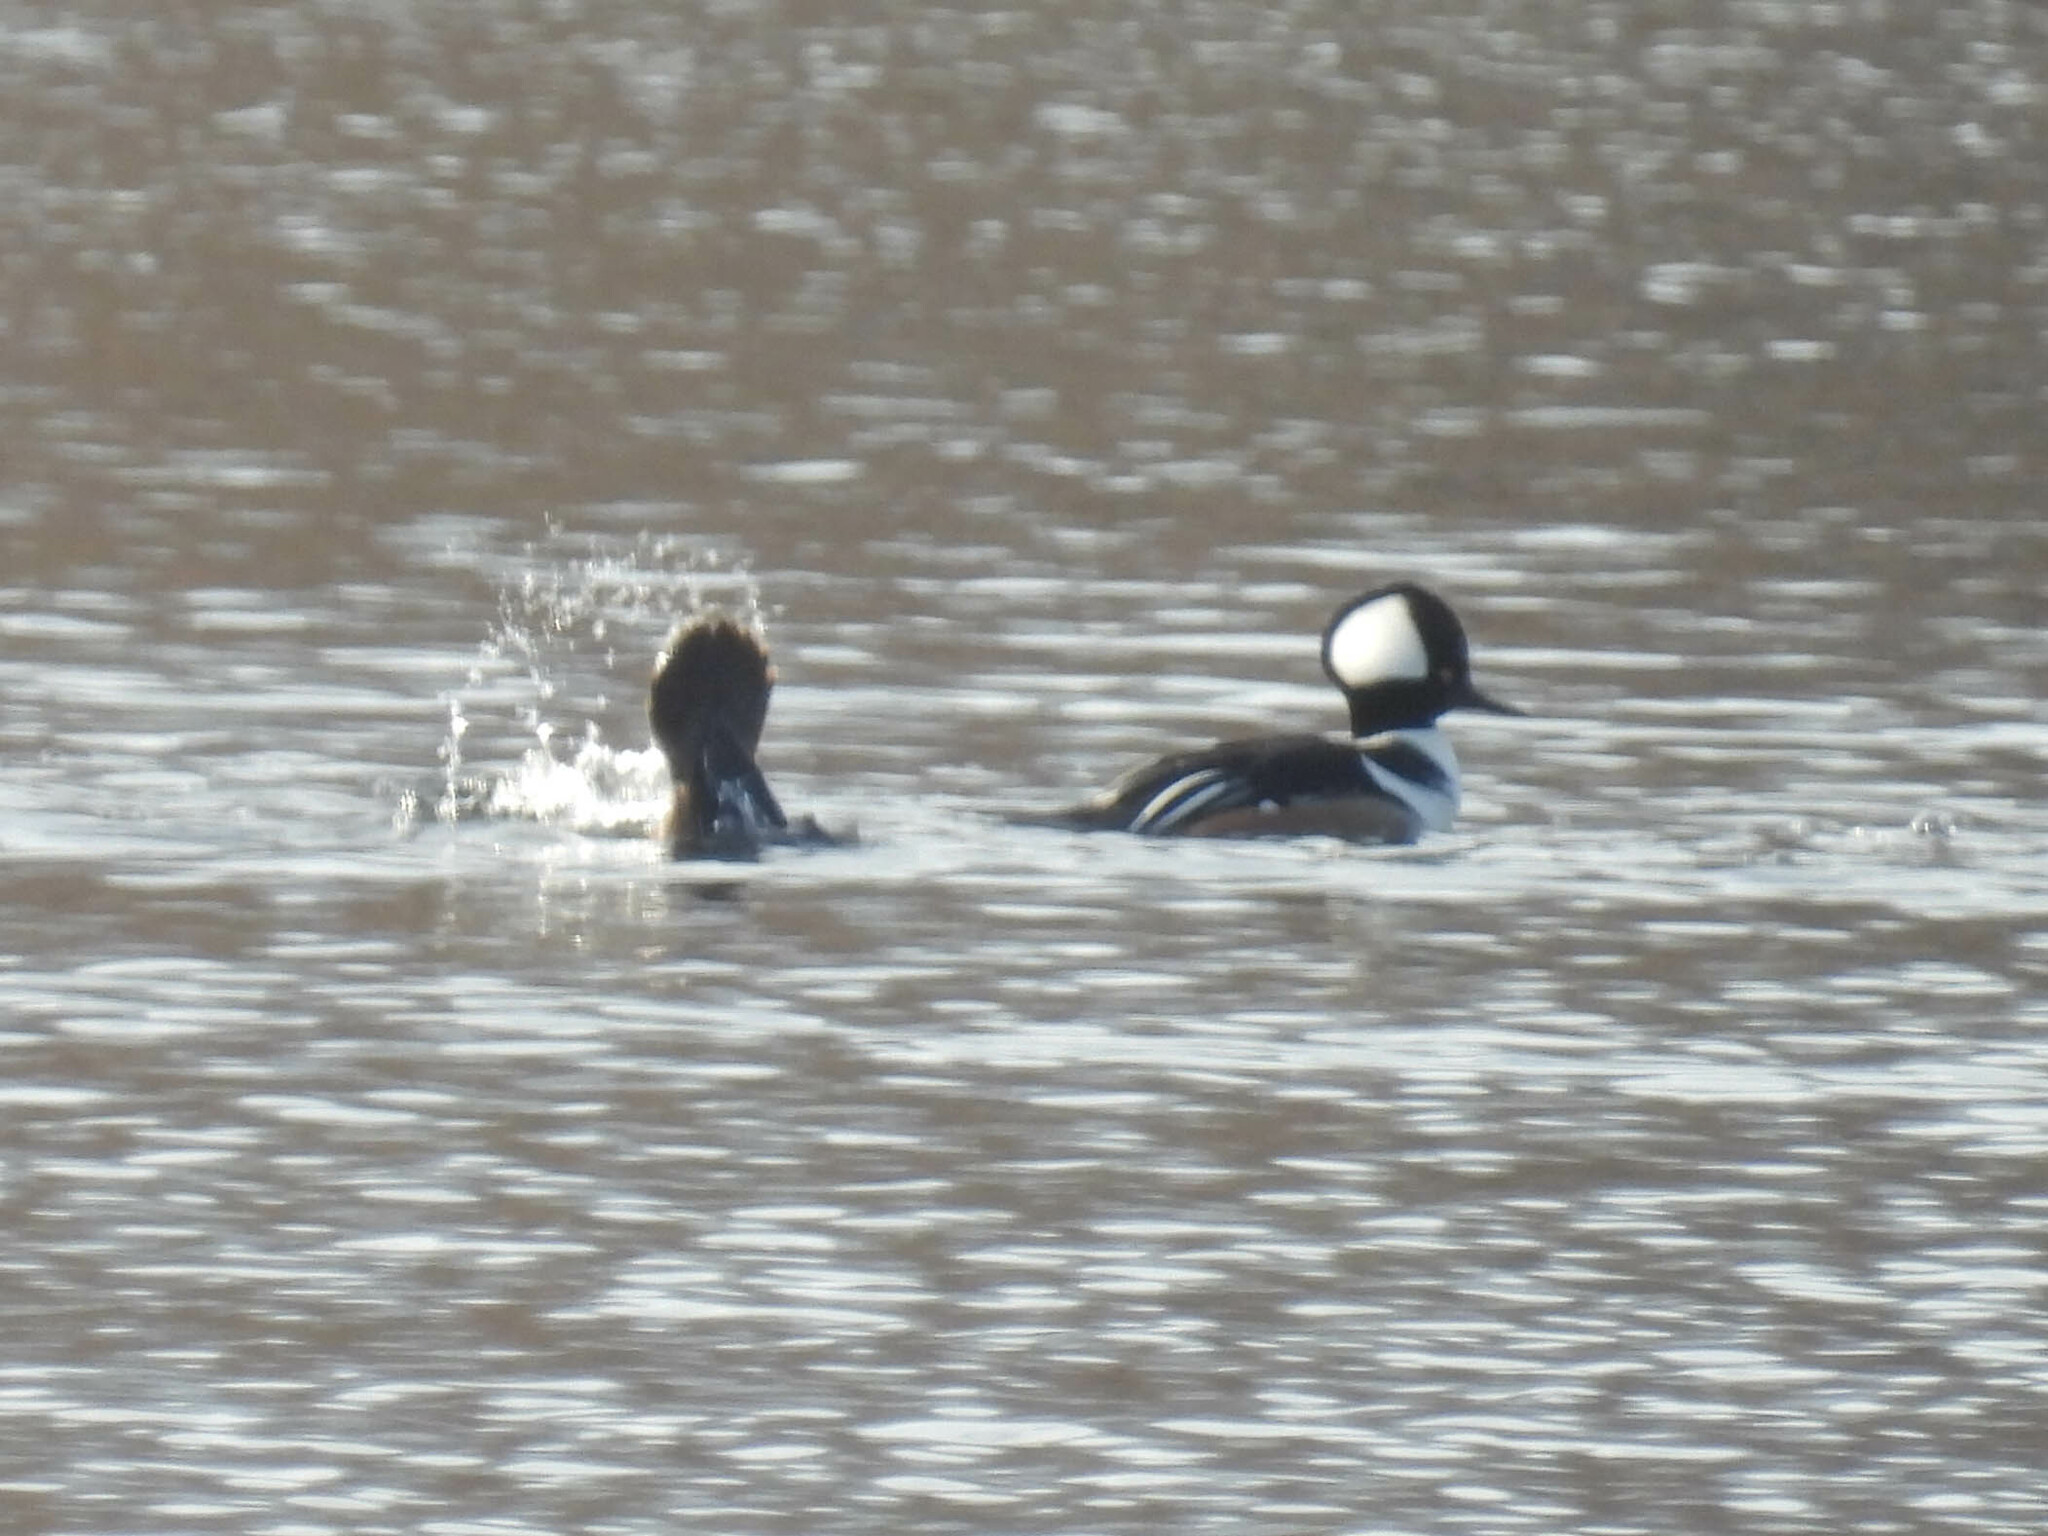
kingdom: Animalia
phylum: Chordata
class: Aves
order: Anseriformes
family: Anatidae
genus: Lophodytes
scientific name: Lophodytes cucullatus
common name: Hooded merganser
